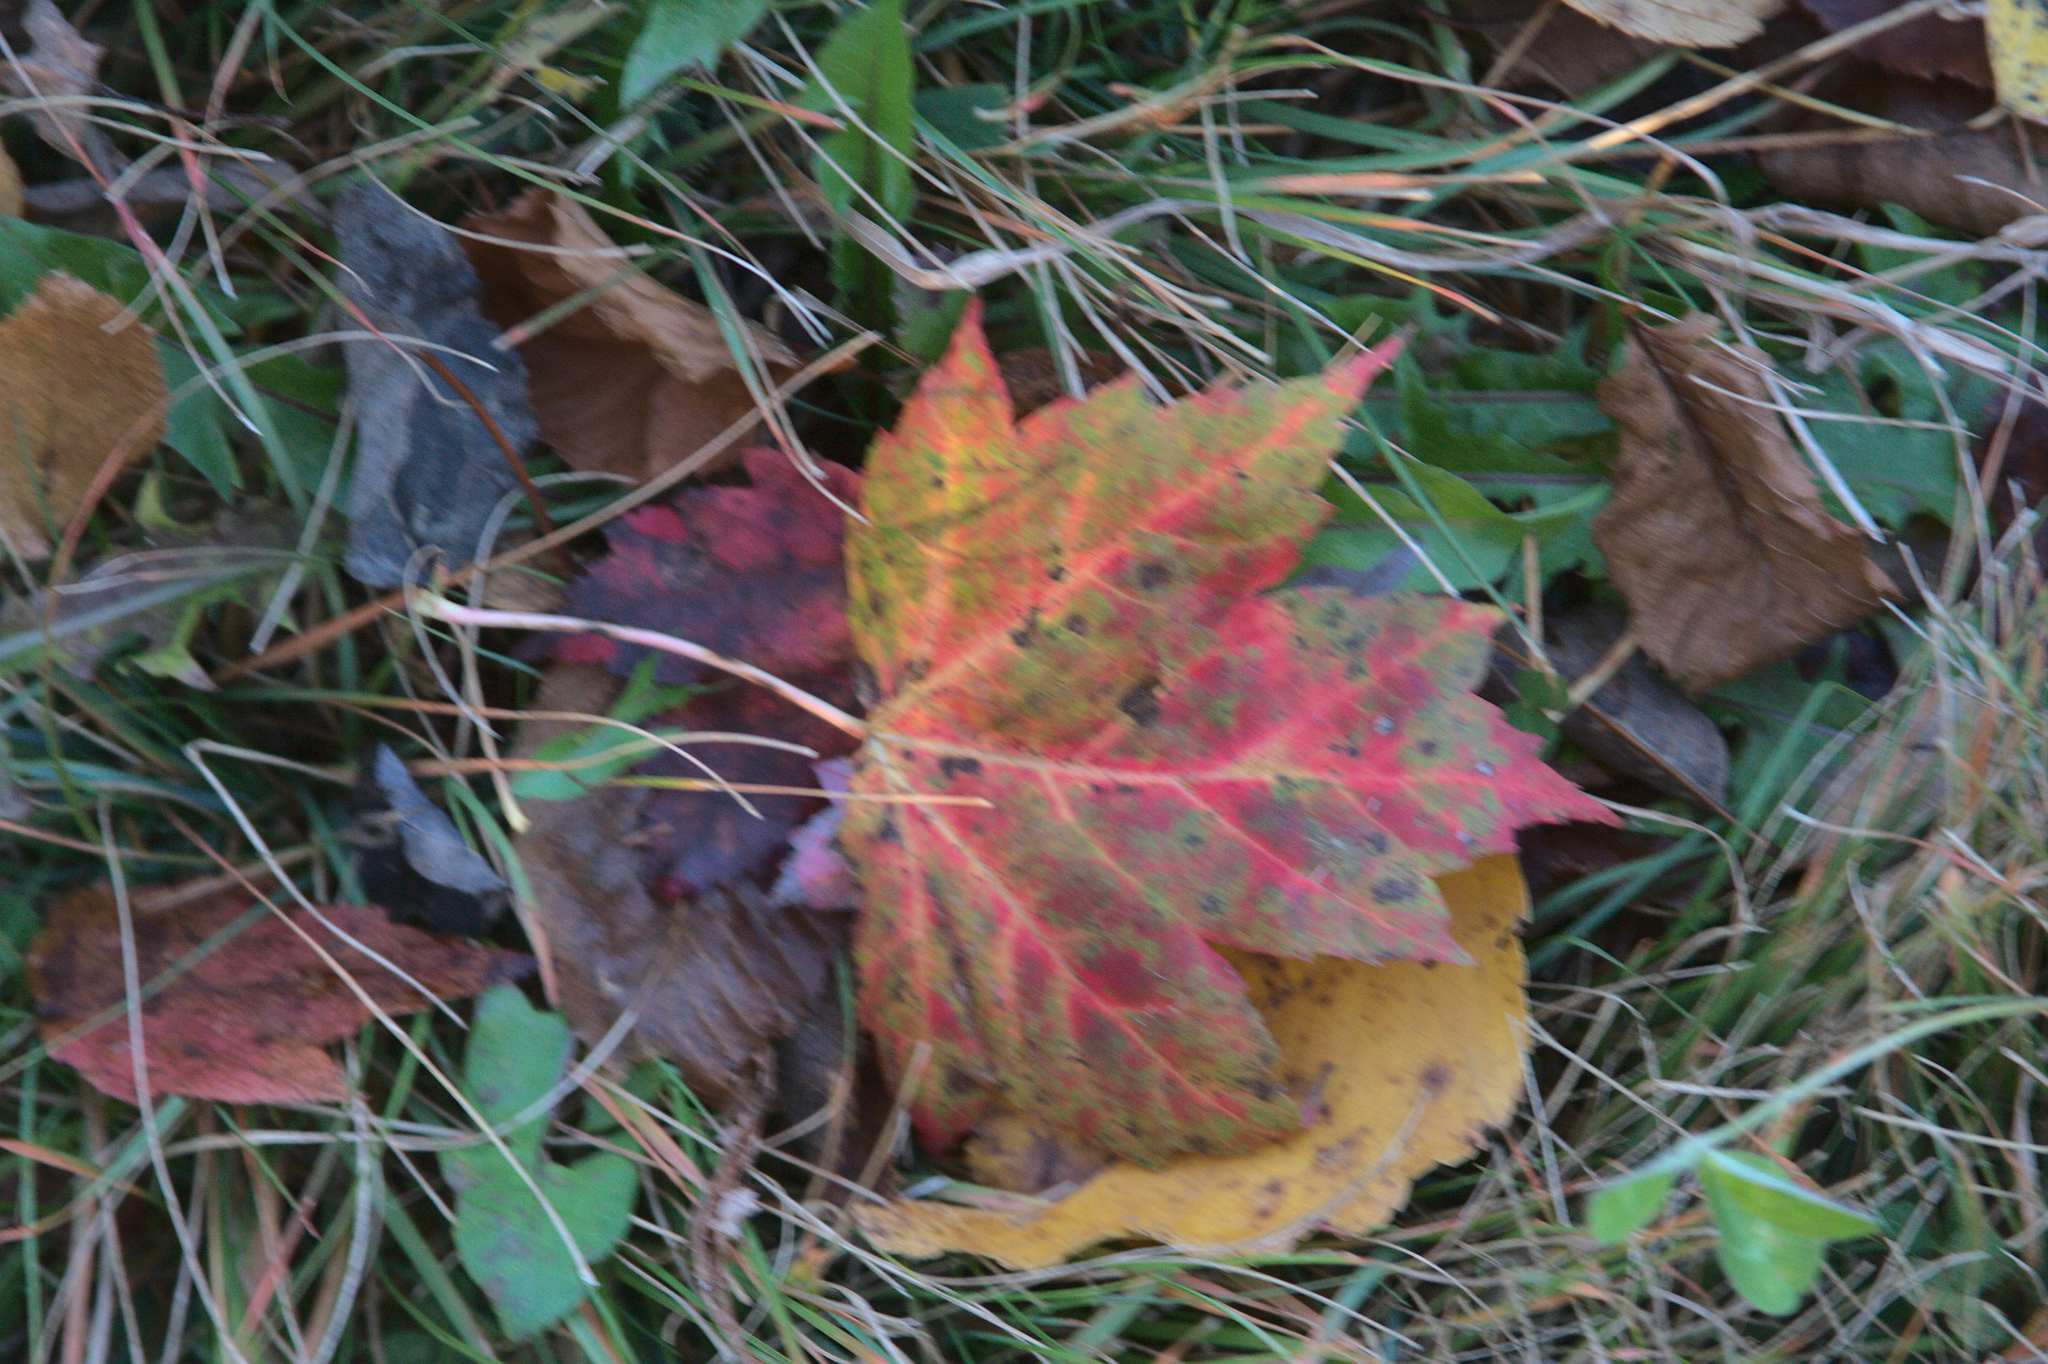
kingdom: Plantae
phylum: Tracheophyta
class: Magnoliopsida
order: Sapindales
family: Sapindaceae
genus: Acer
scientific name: Acer rubrum
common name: Red maple
